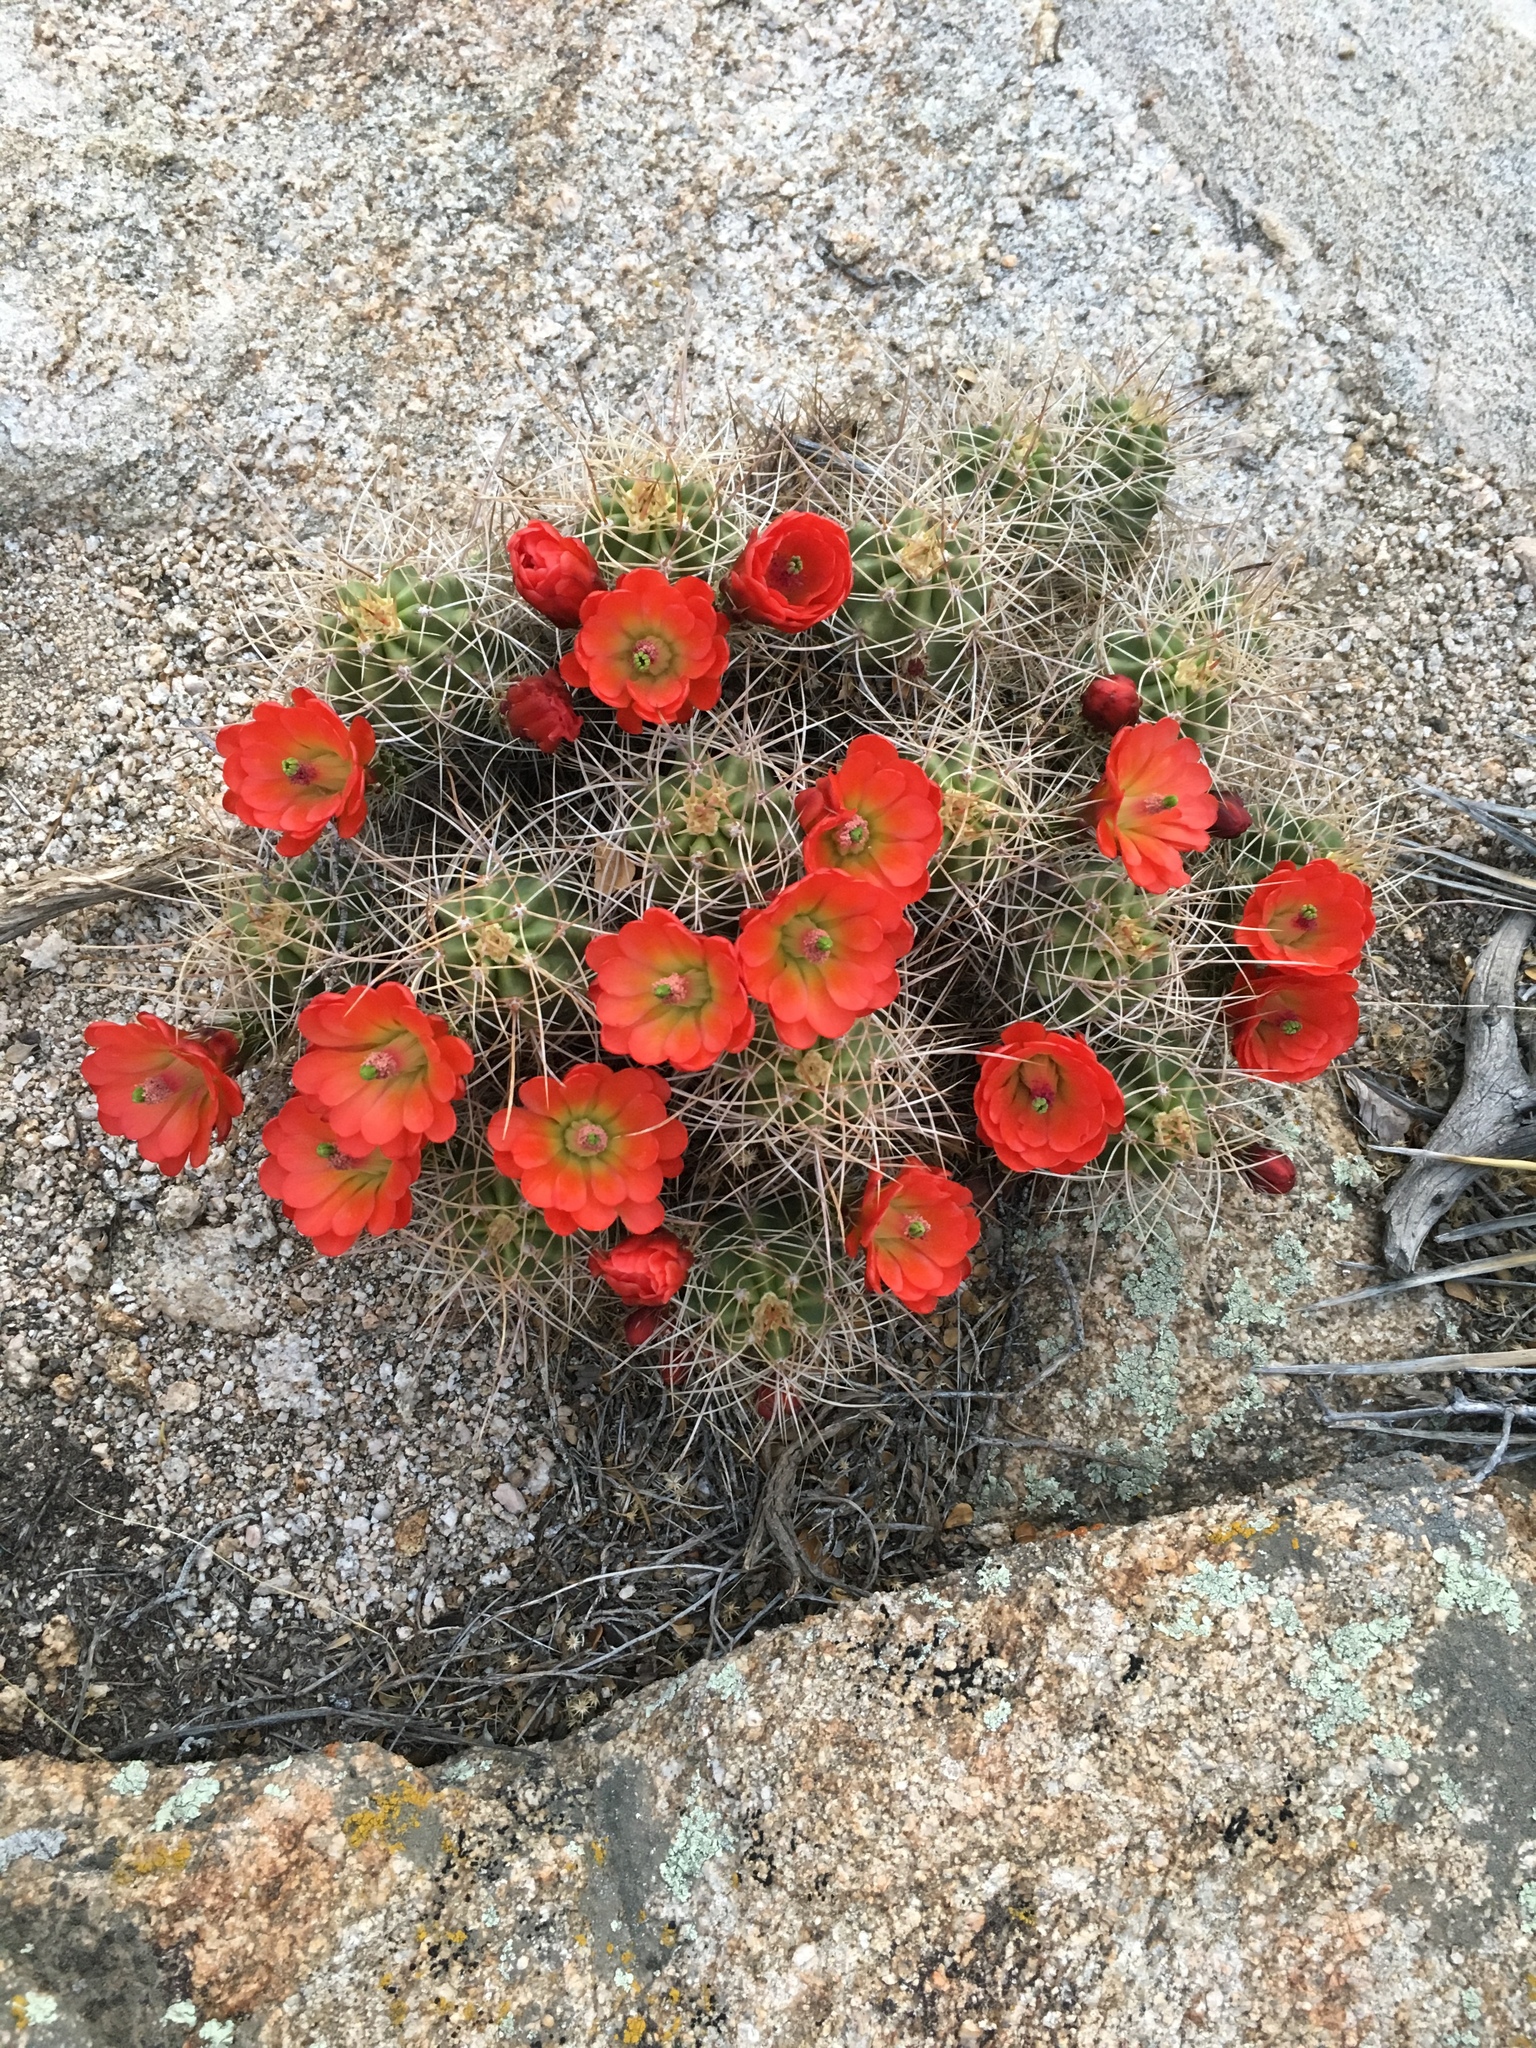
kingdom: Plantae
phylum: Tracheophyta
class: Magnoliopsida
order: Caryophyllales
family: Cactaceae
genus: Echinocereus
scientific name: Echinocereus triglochidiatus
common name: Claretcup hedgehog
